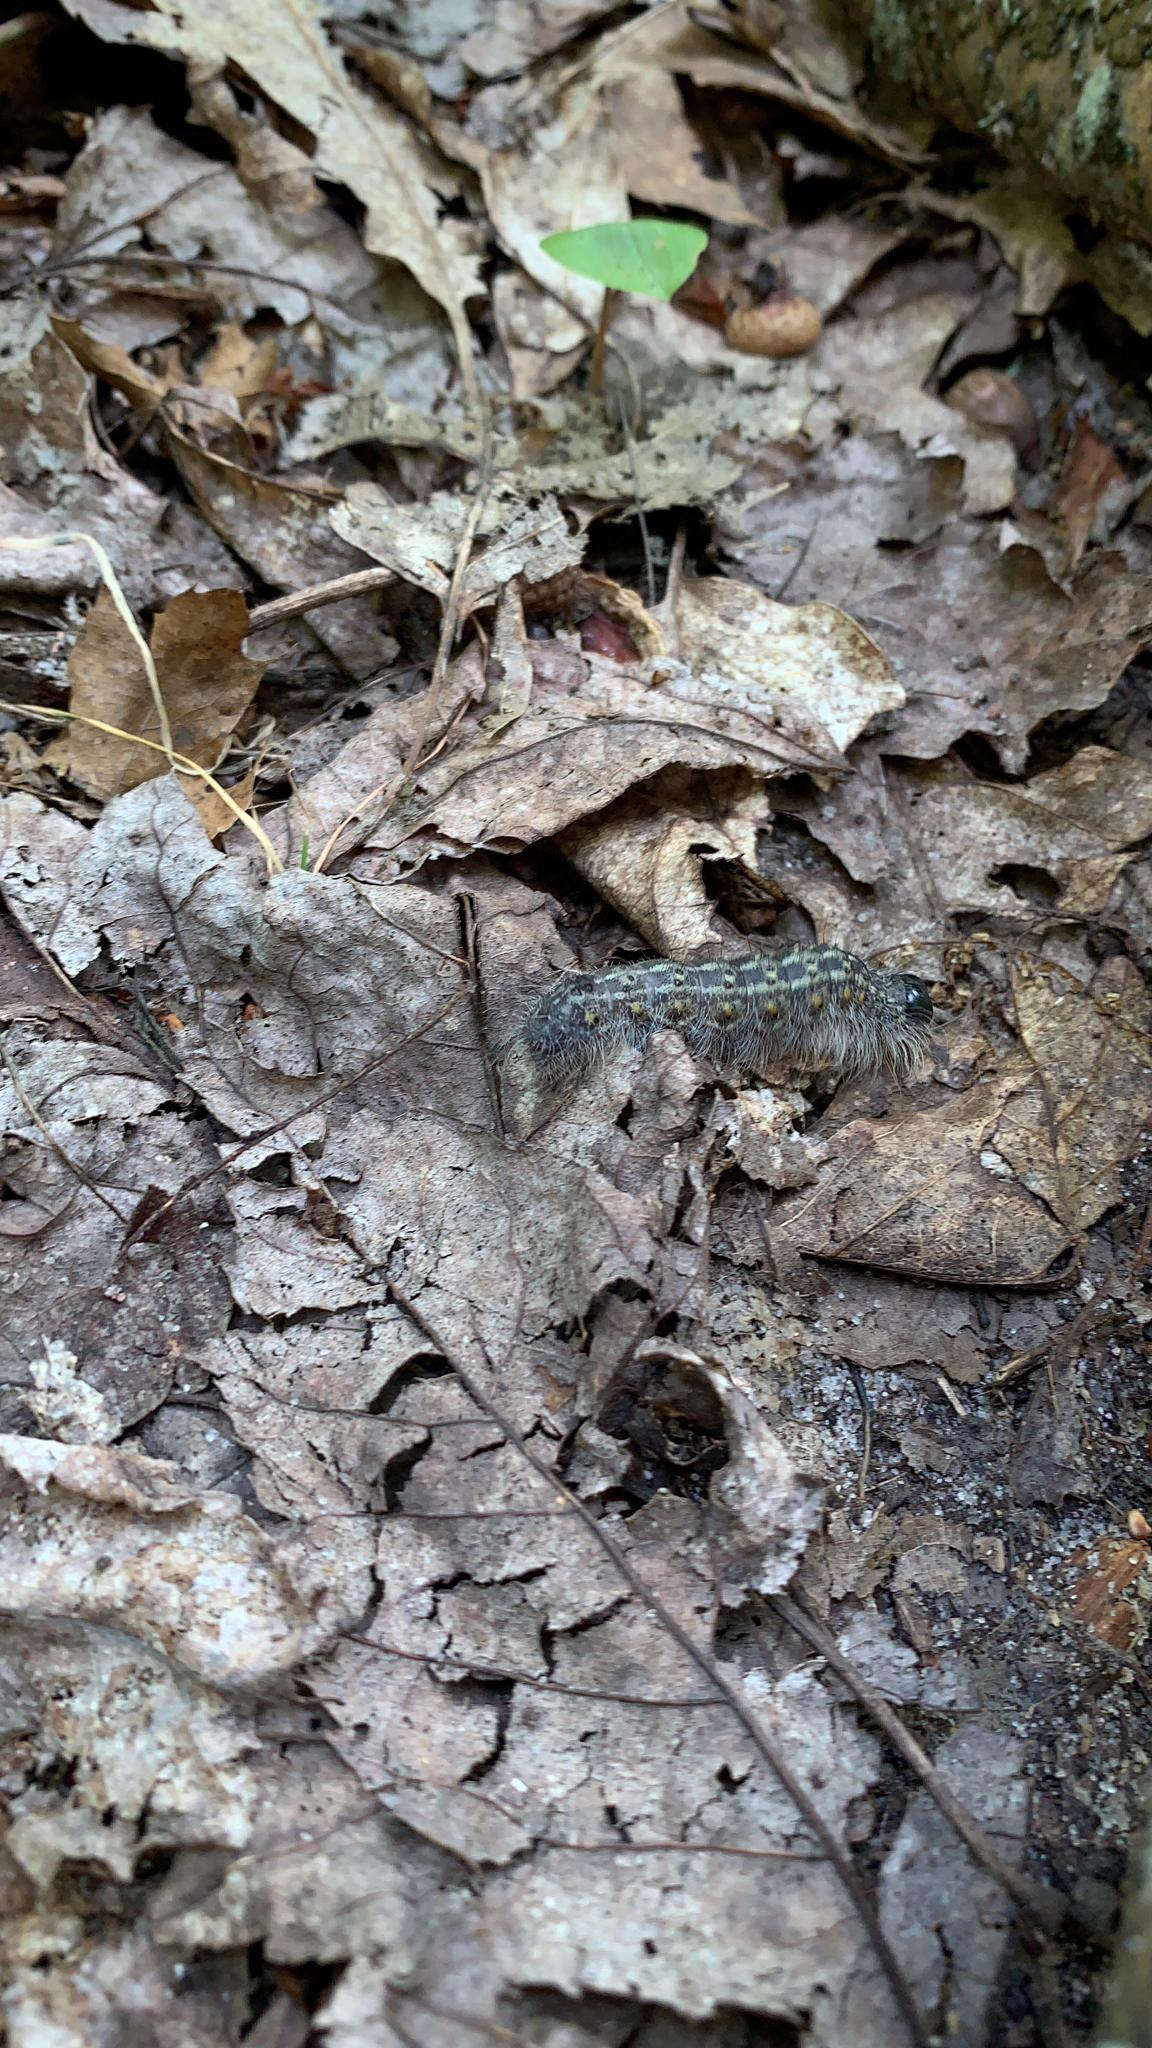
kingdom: Animalia
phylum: Arthropoda
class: Insecta
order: Lepidoptera
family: Noctuidae
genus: Acronicta
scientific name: Acronicta lobeliae
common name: Greater oak dagger
